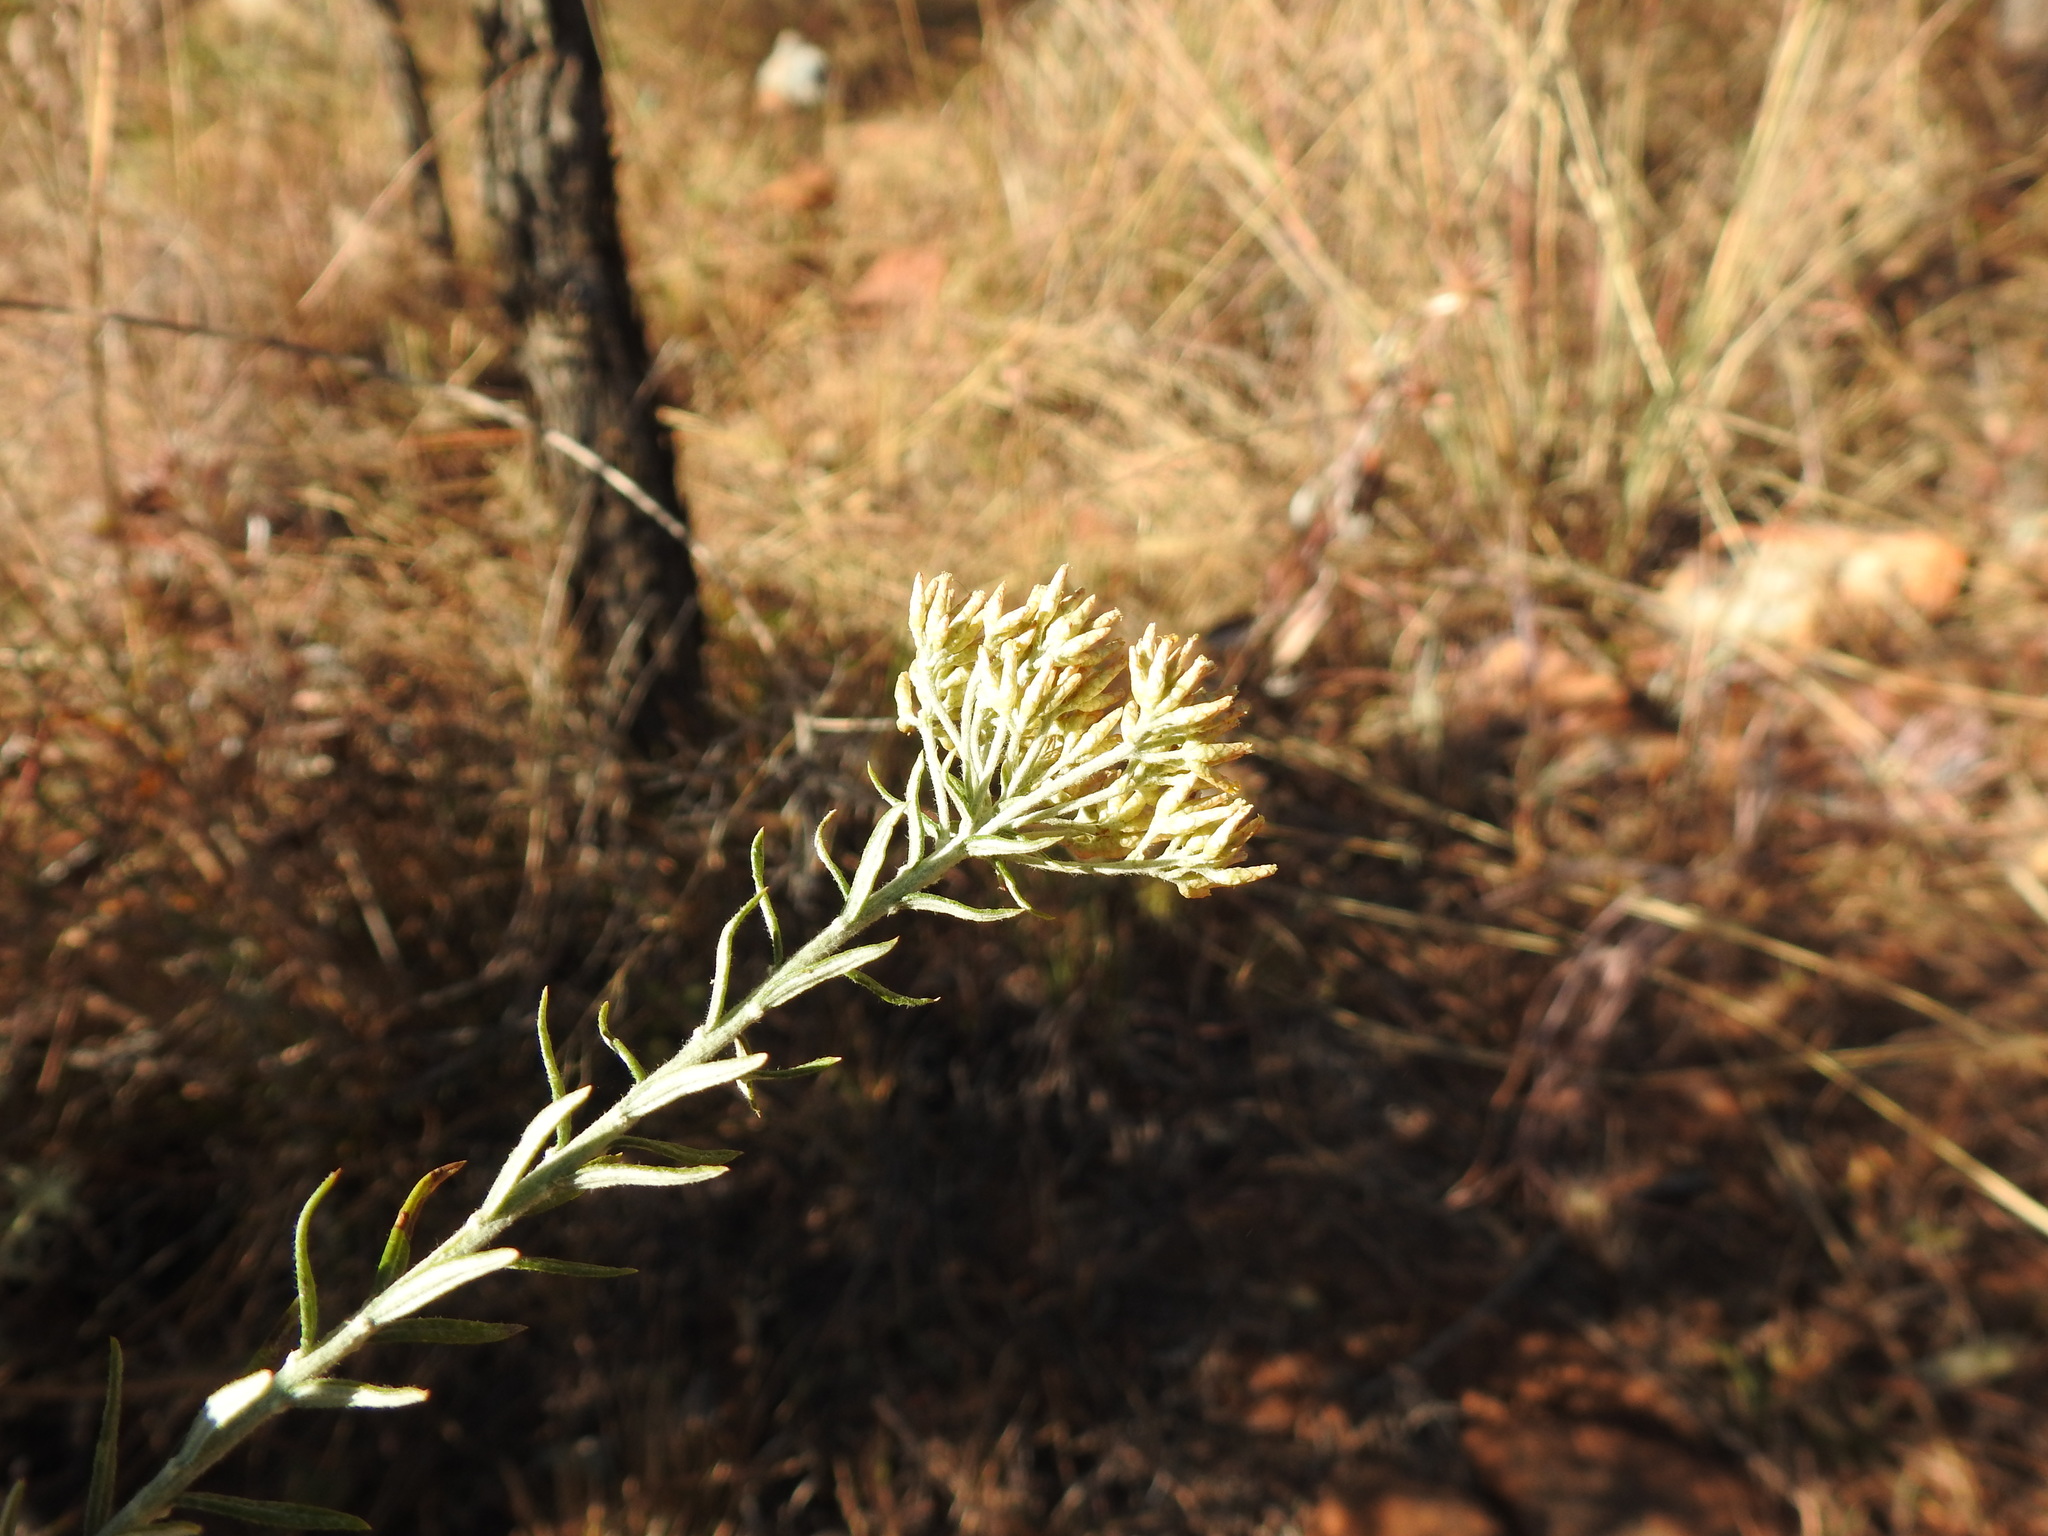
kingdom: Plantae
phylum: Tracheophyta
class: Magnoliopsida
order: Asterales
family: Asteraceae
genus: Helichrysum
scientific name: Helichrysum kraussii
